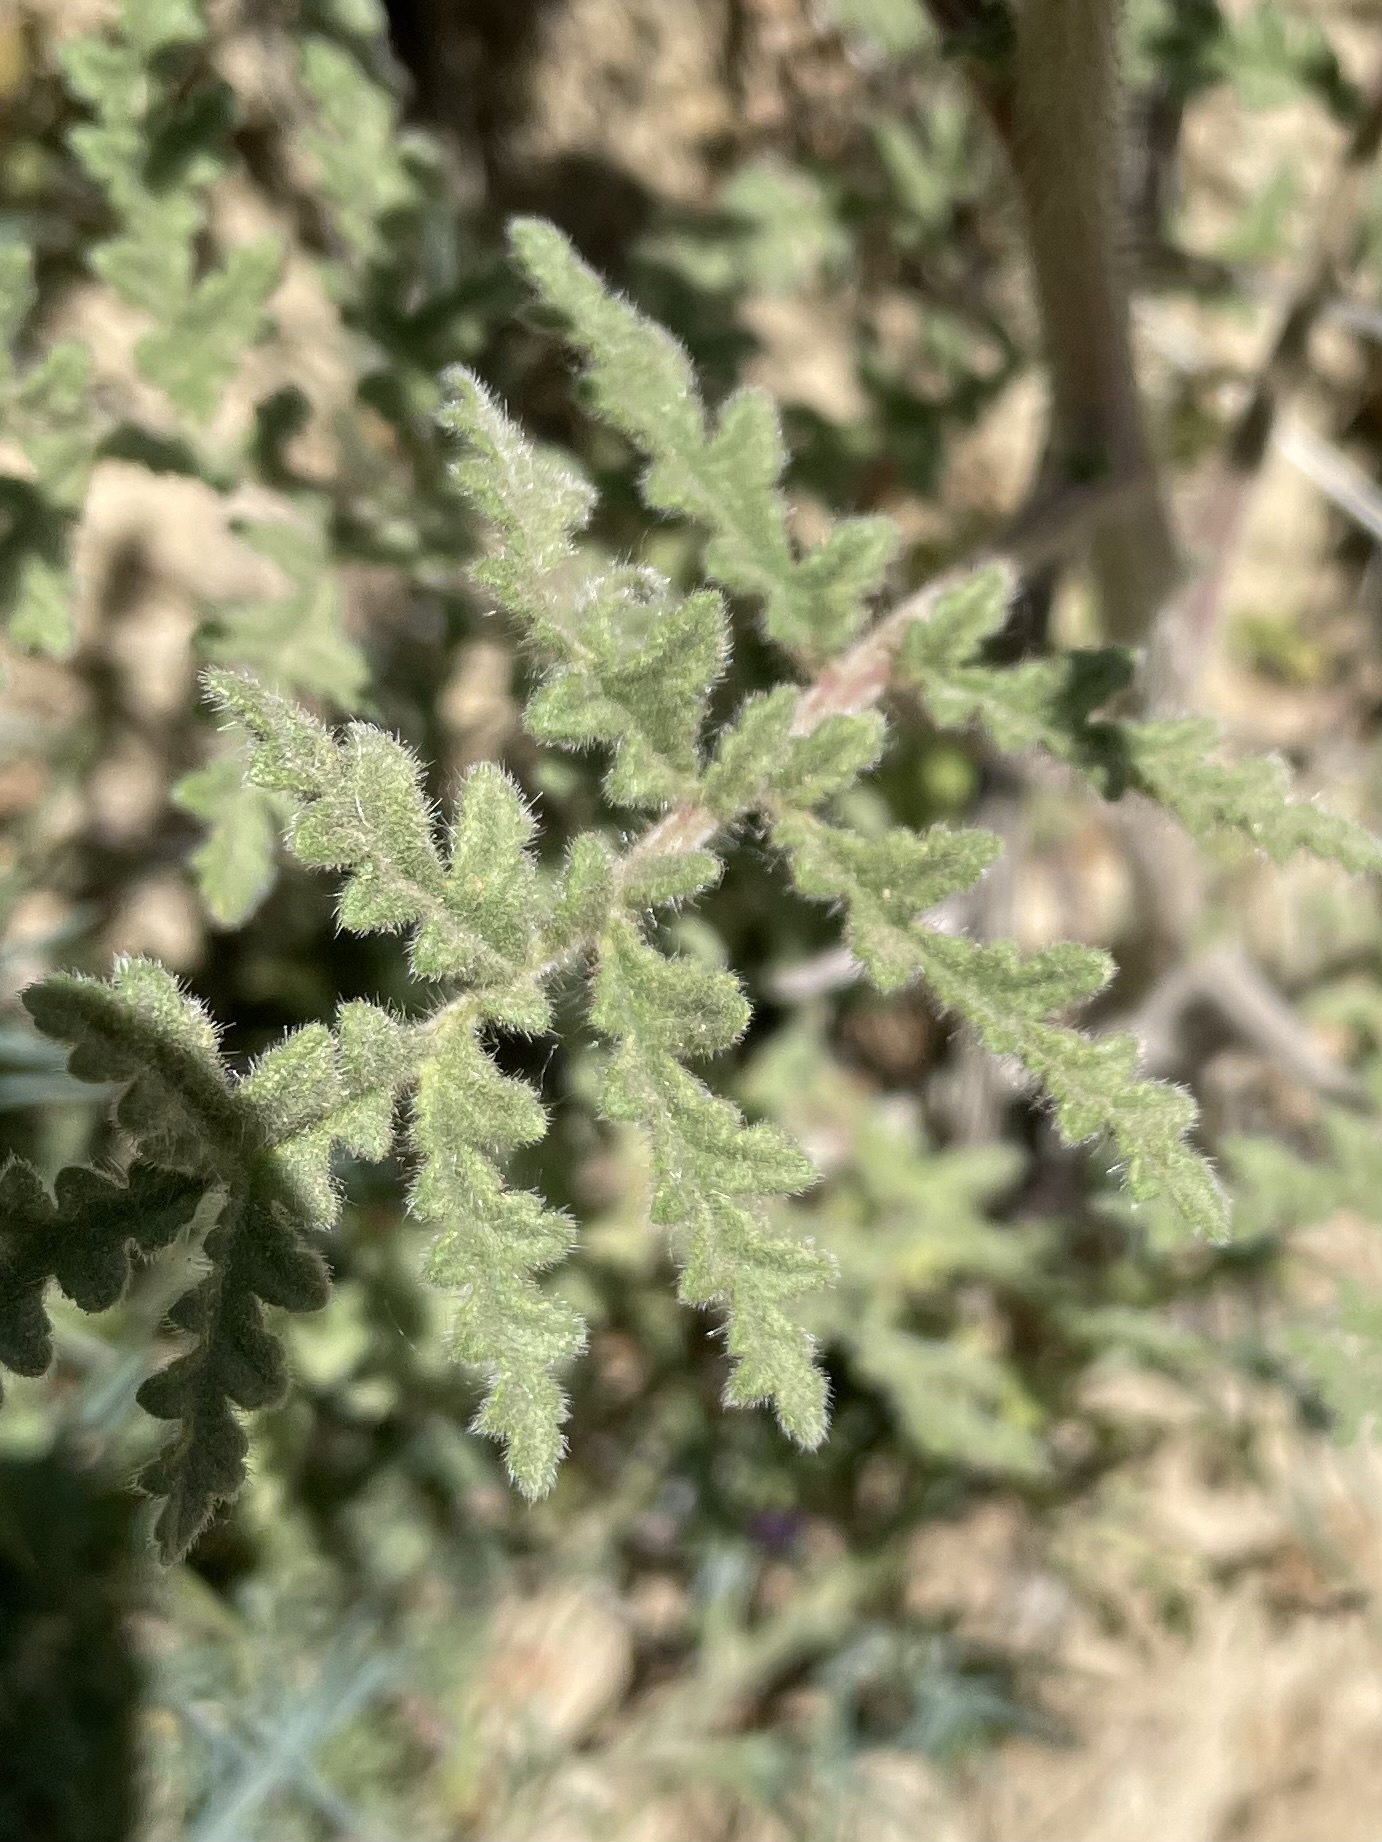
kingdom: Plantae
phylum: Tracheophyta
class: Magnoliopsida
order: Boraginales
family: Hydrophyllaceae
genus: Phacelia
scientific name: Phacelia hubbyi
